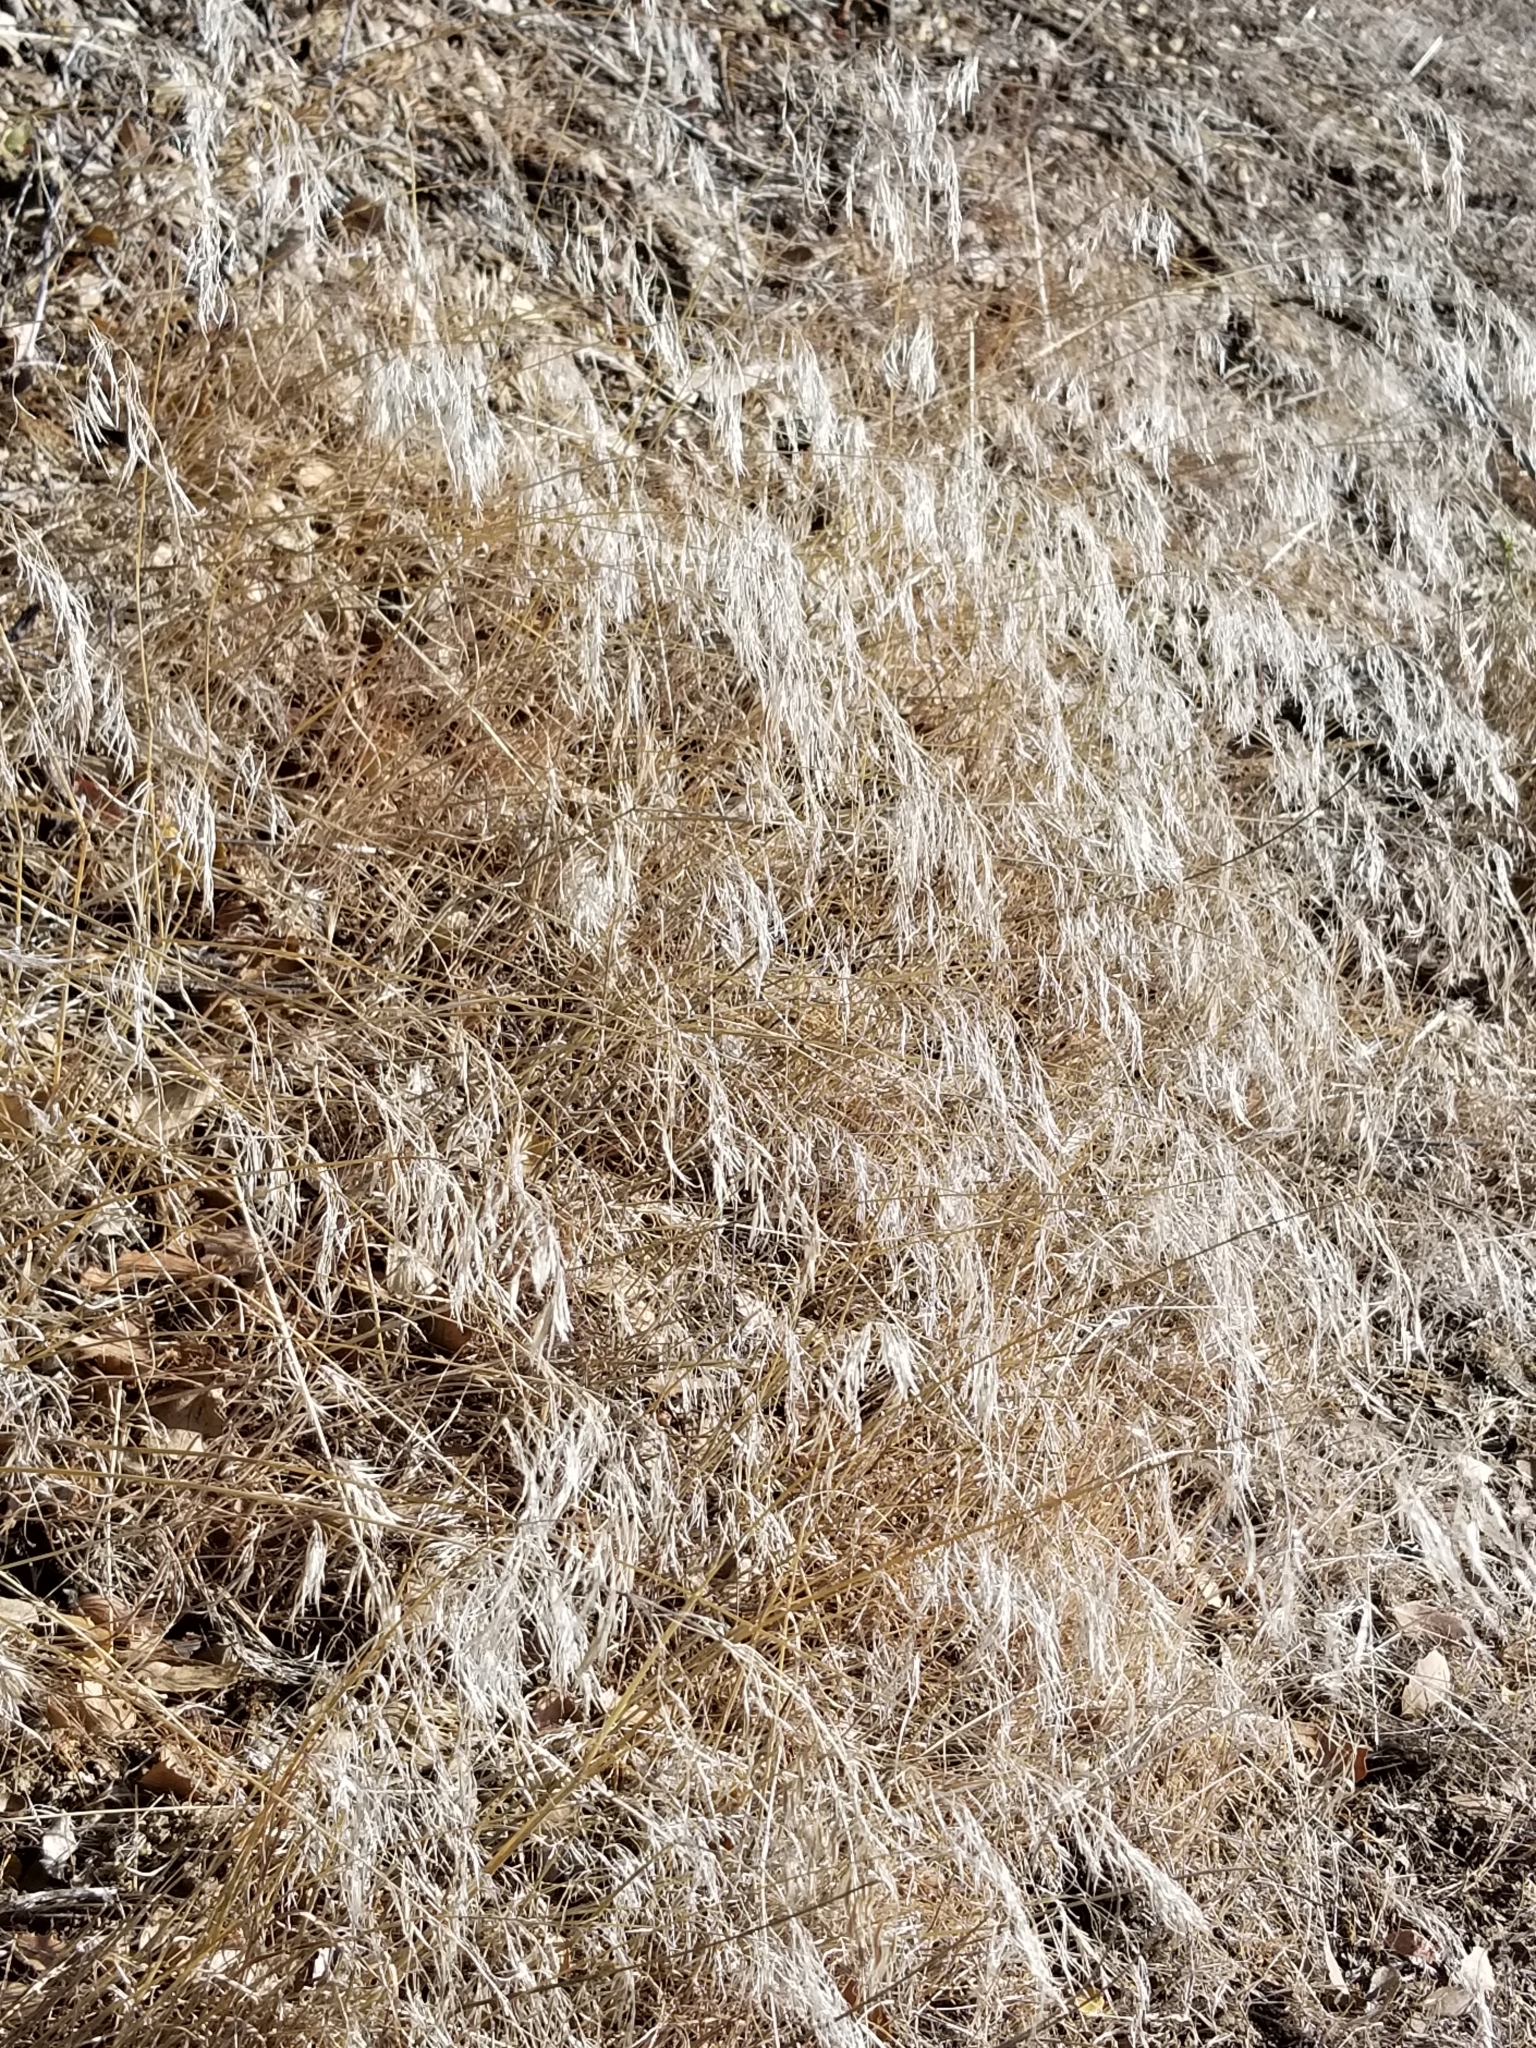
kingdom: Plantae
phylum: Tracheophyta
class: Liliopsida
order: Poales
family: Poaceae
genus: Bromus
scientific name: Bromus tectorum
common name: Cheatgrass
